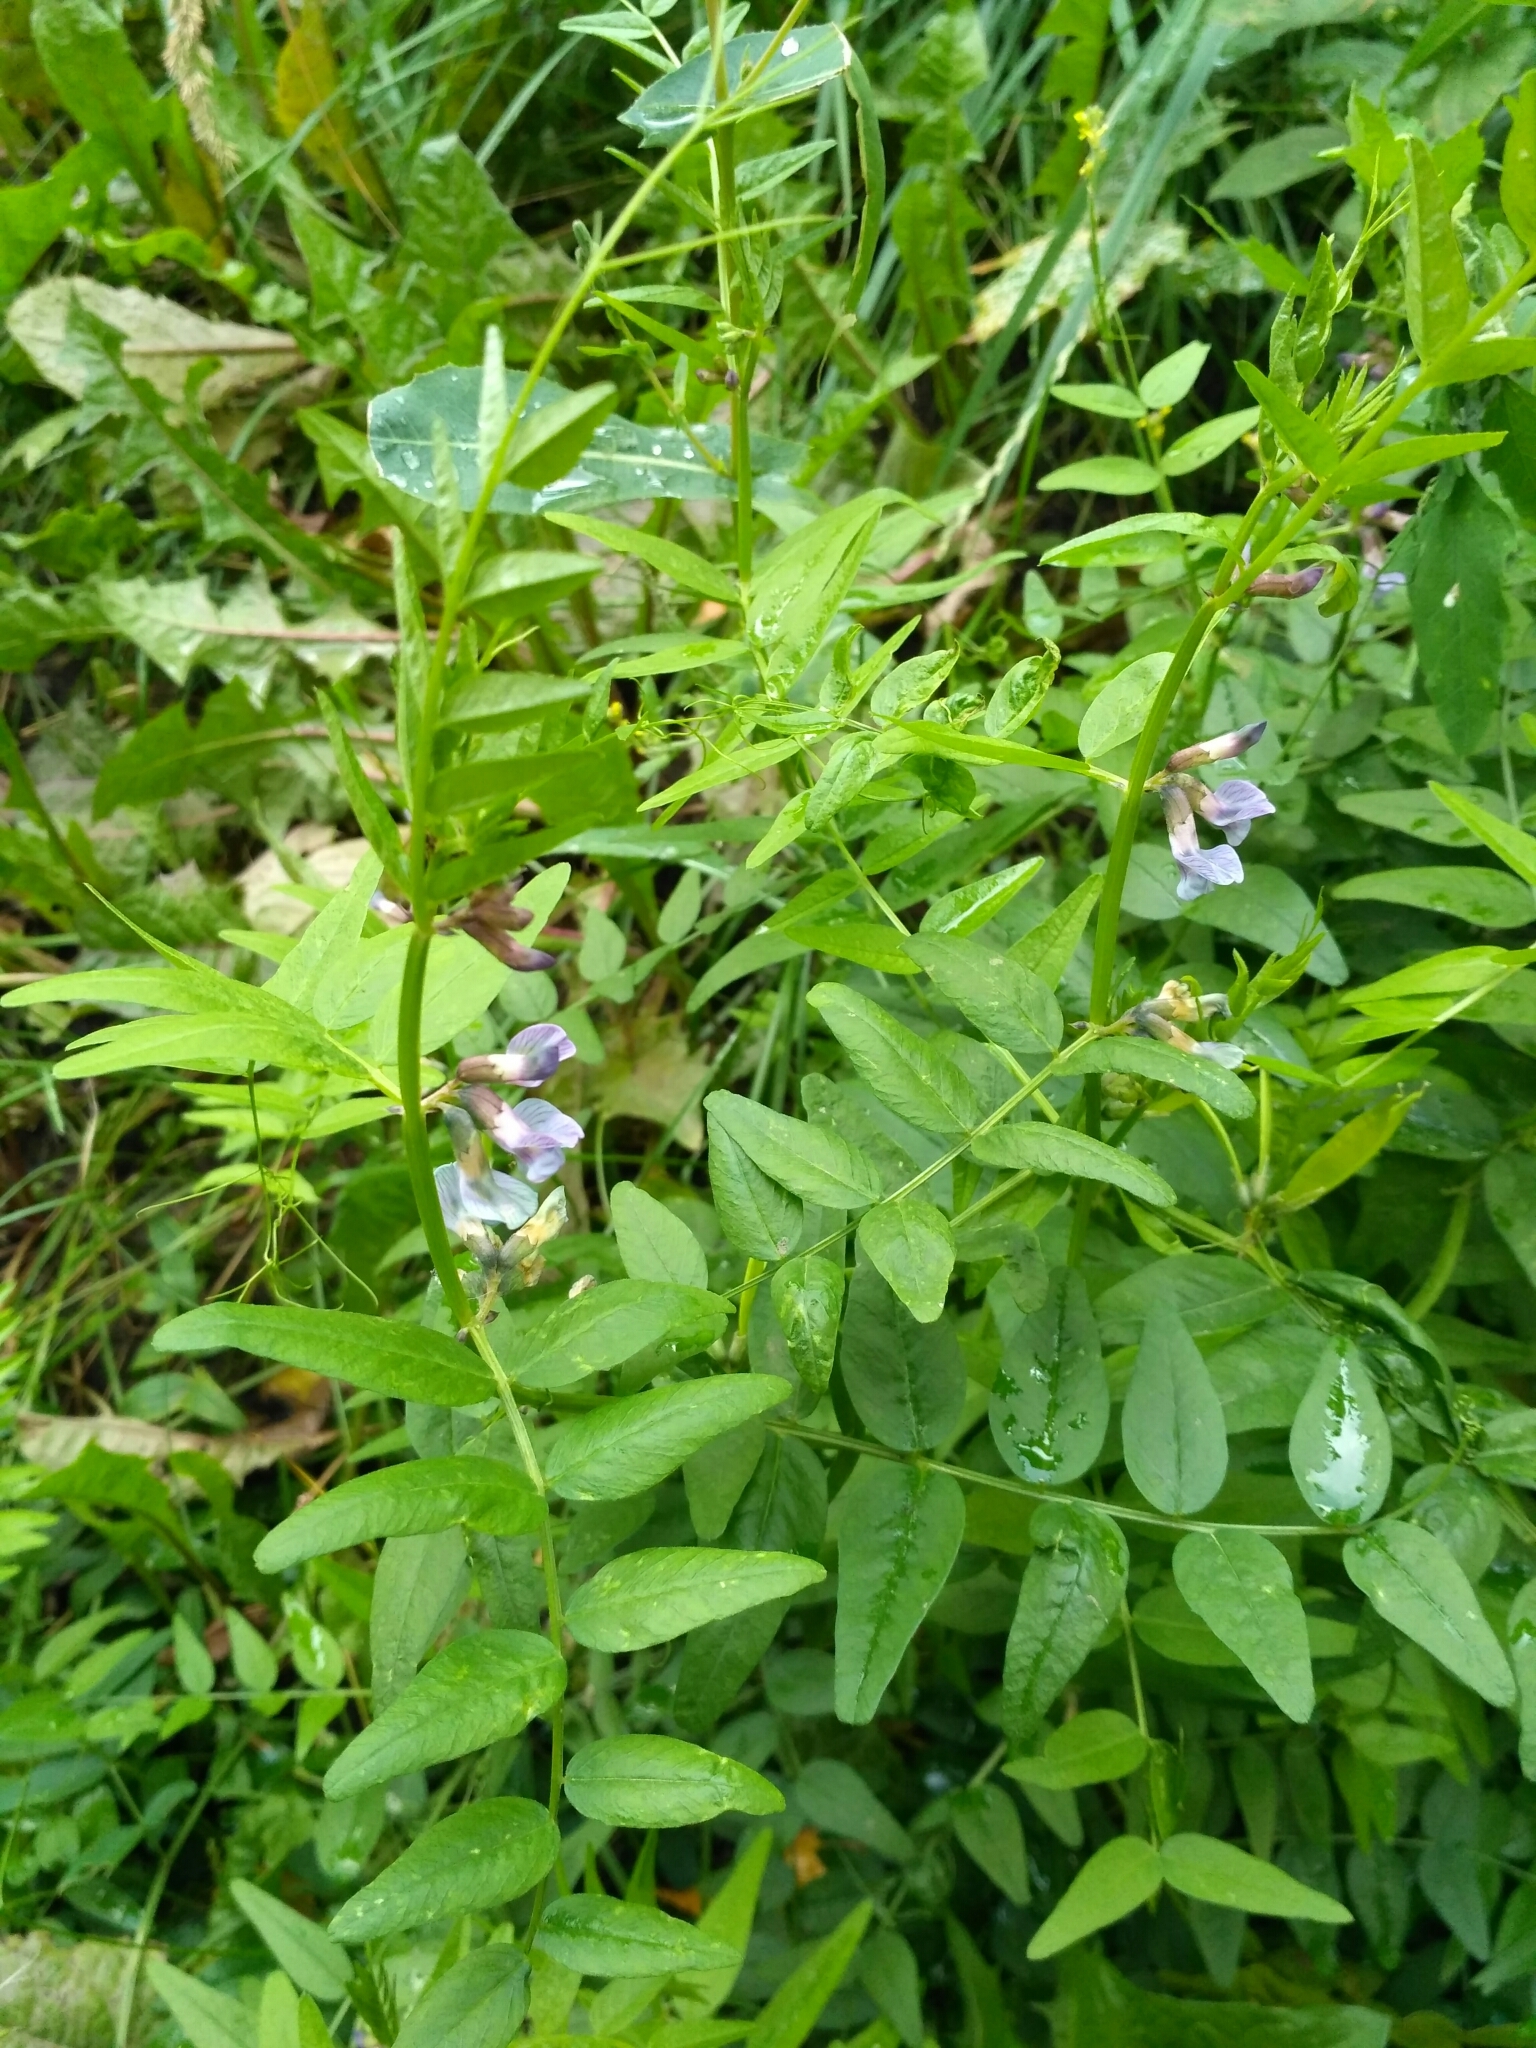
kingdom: Plantae
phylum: Tracheophyta
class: Magnoliopsida
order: Fabales
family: Fabaceae
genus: Vicia
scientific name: Vicia sepium
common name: Bush vetch
